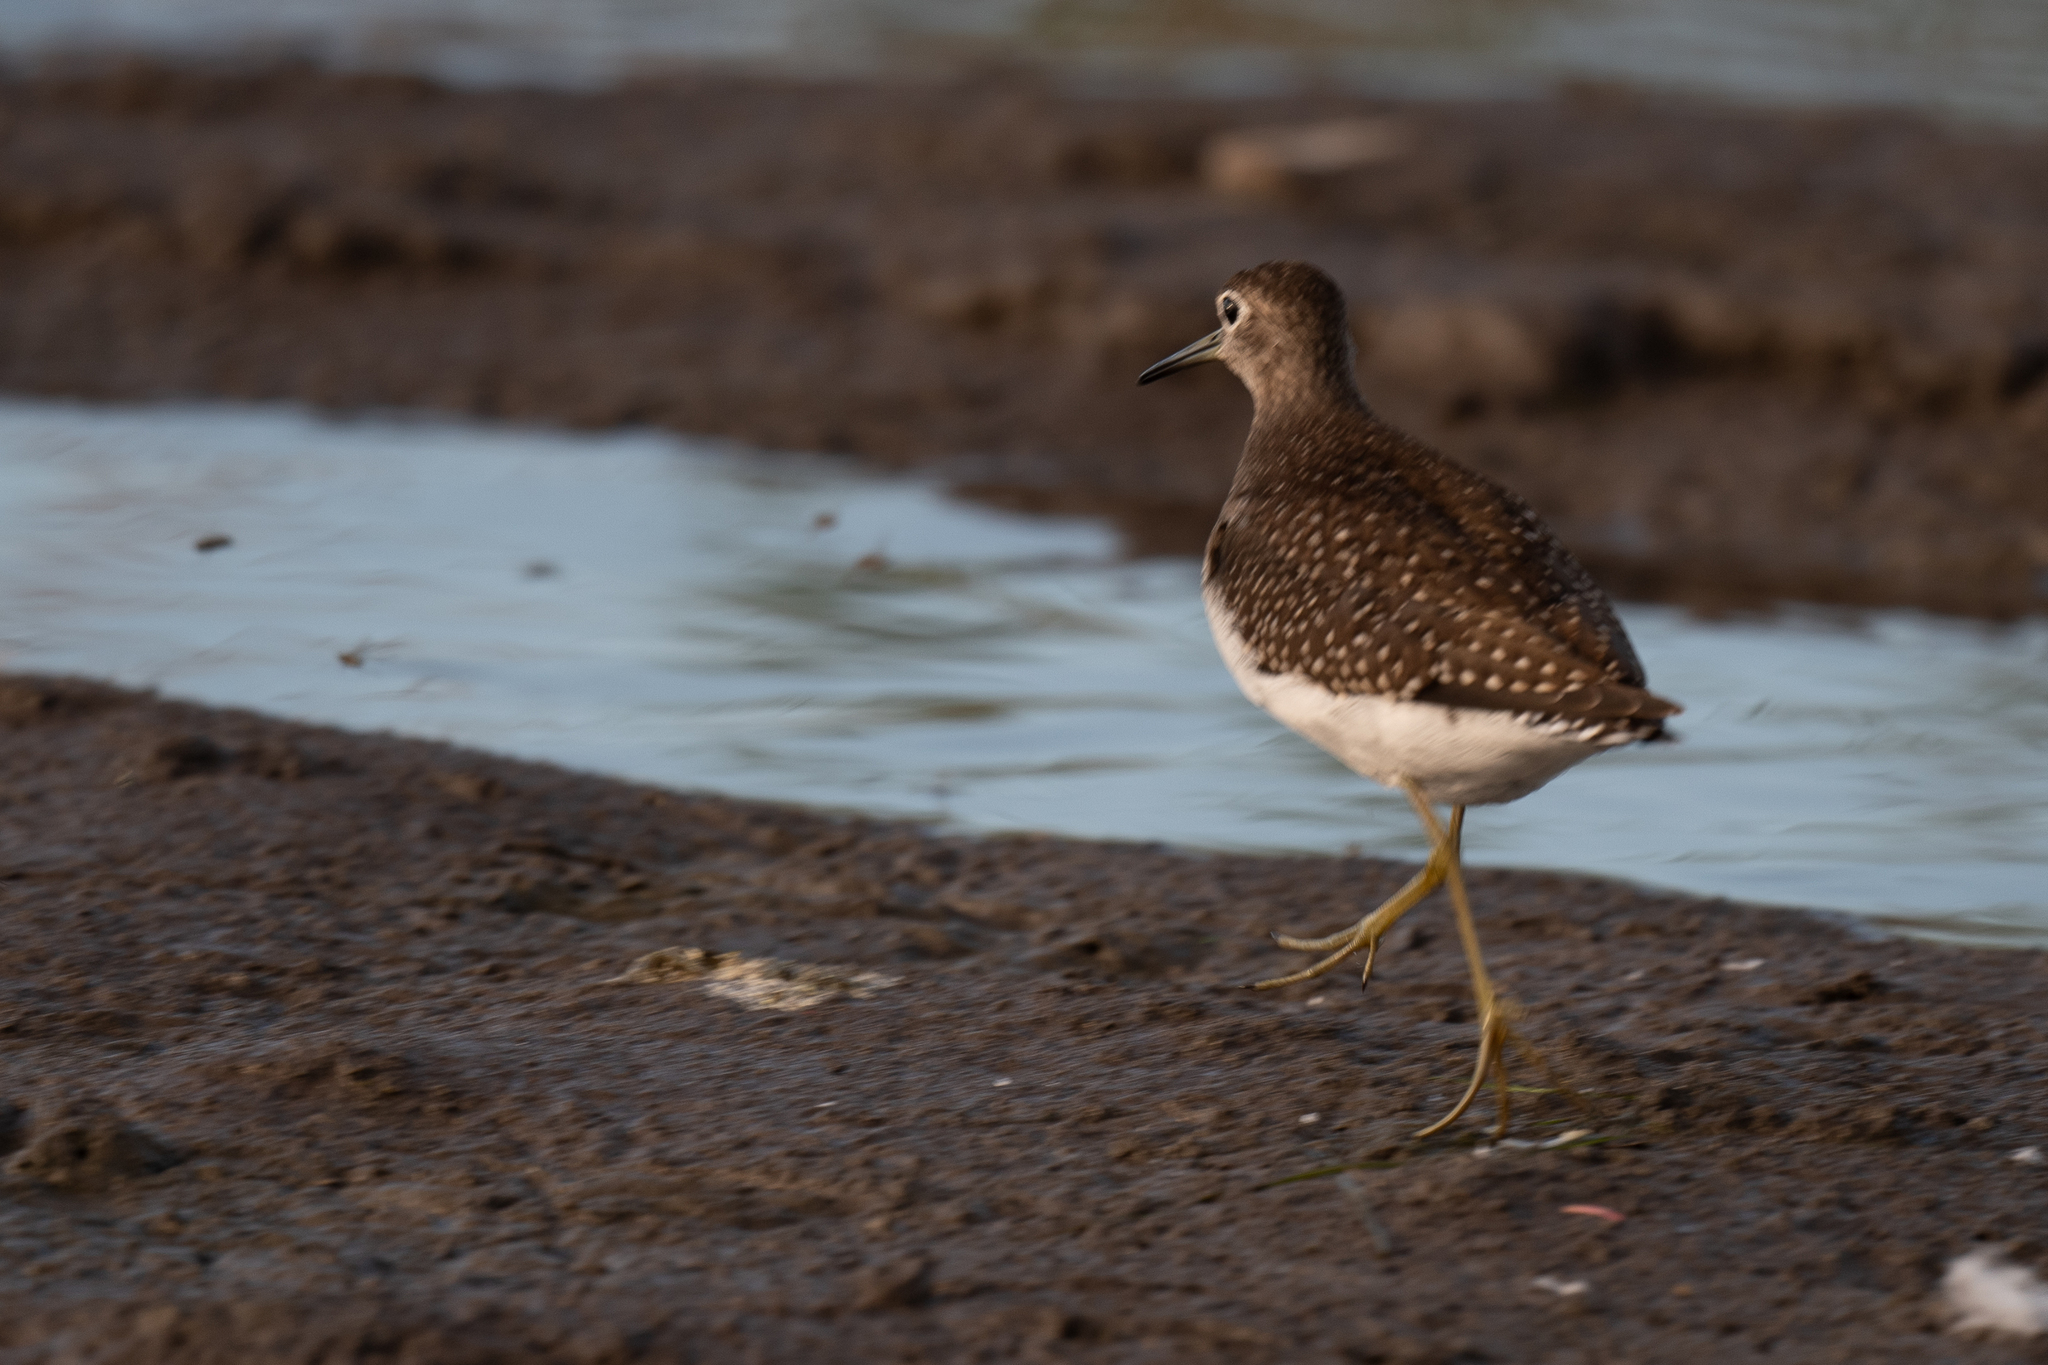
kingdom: Animalia
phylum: Chordata
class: Aves
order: Charadriiformes
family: Scolopacidae
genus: Tringa
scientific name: Tringa solitaria
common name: Solitary sandpiper
